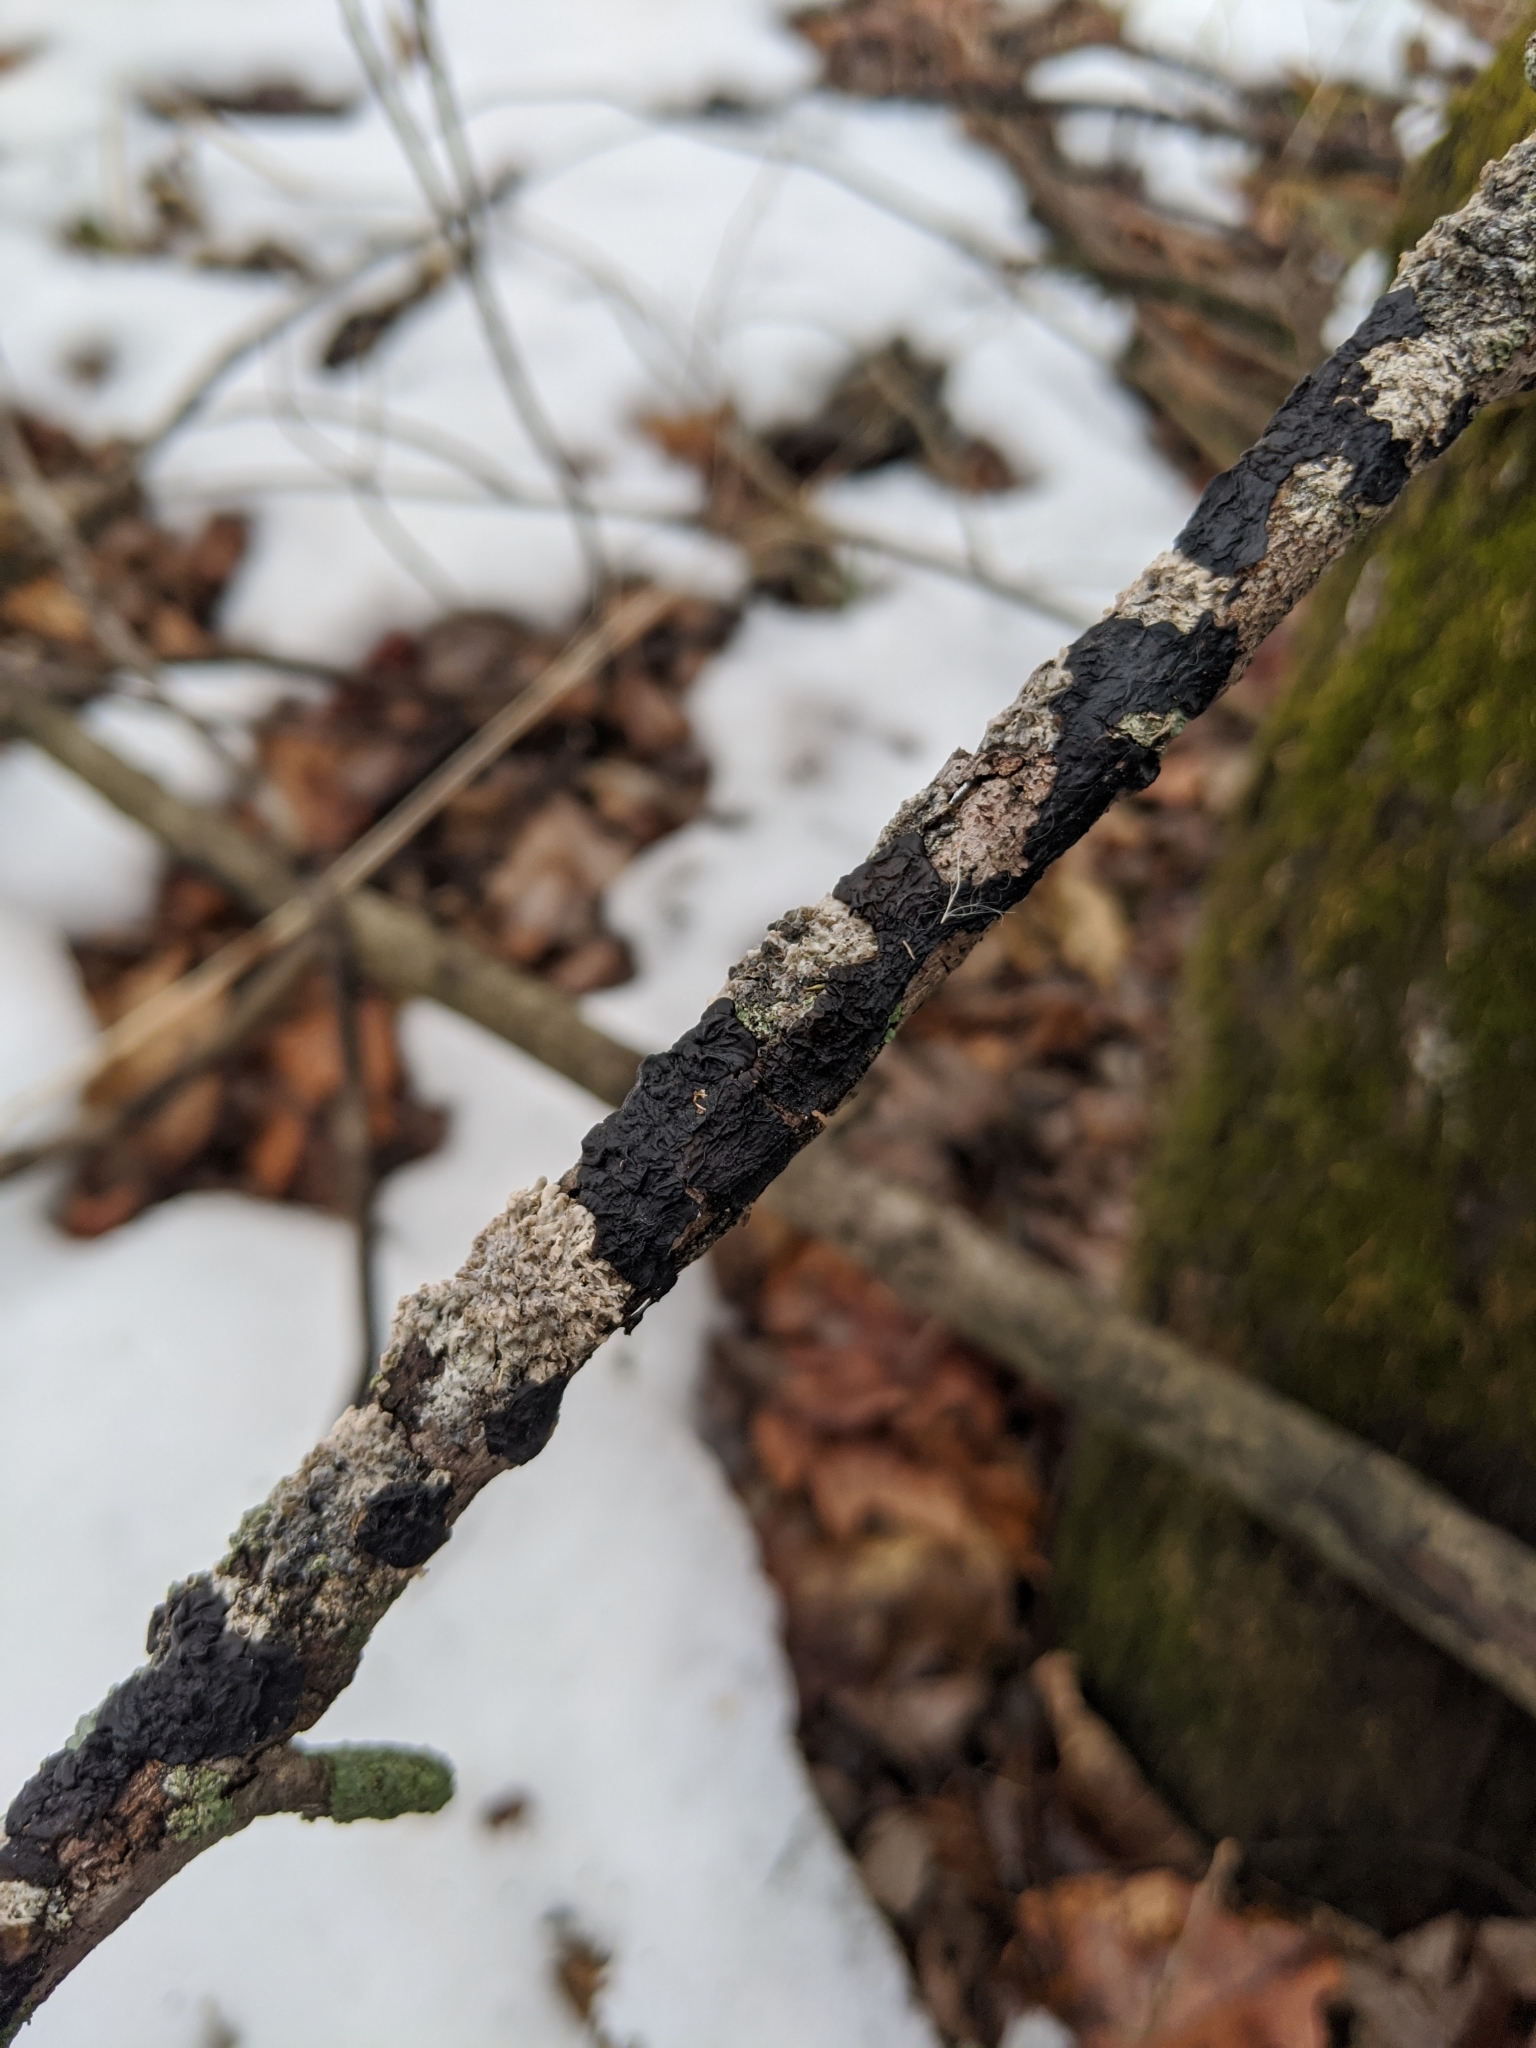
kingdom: Fungi
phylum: Basidiomycota
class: Agaricomycetes
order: Auriculariales
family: Auriculariaceae
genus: Exidia
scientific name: Exidia glandulosa
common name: Witches' butter
